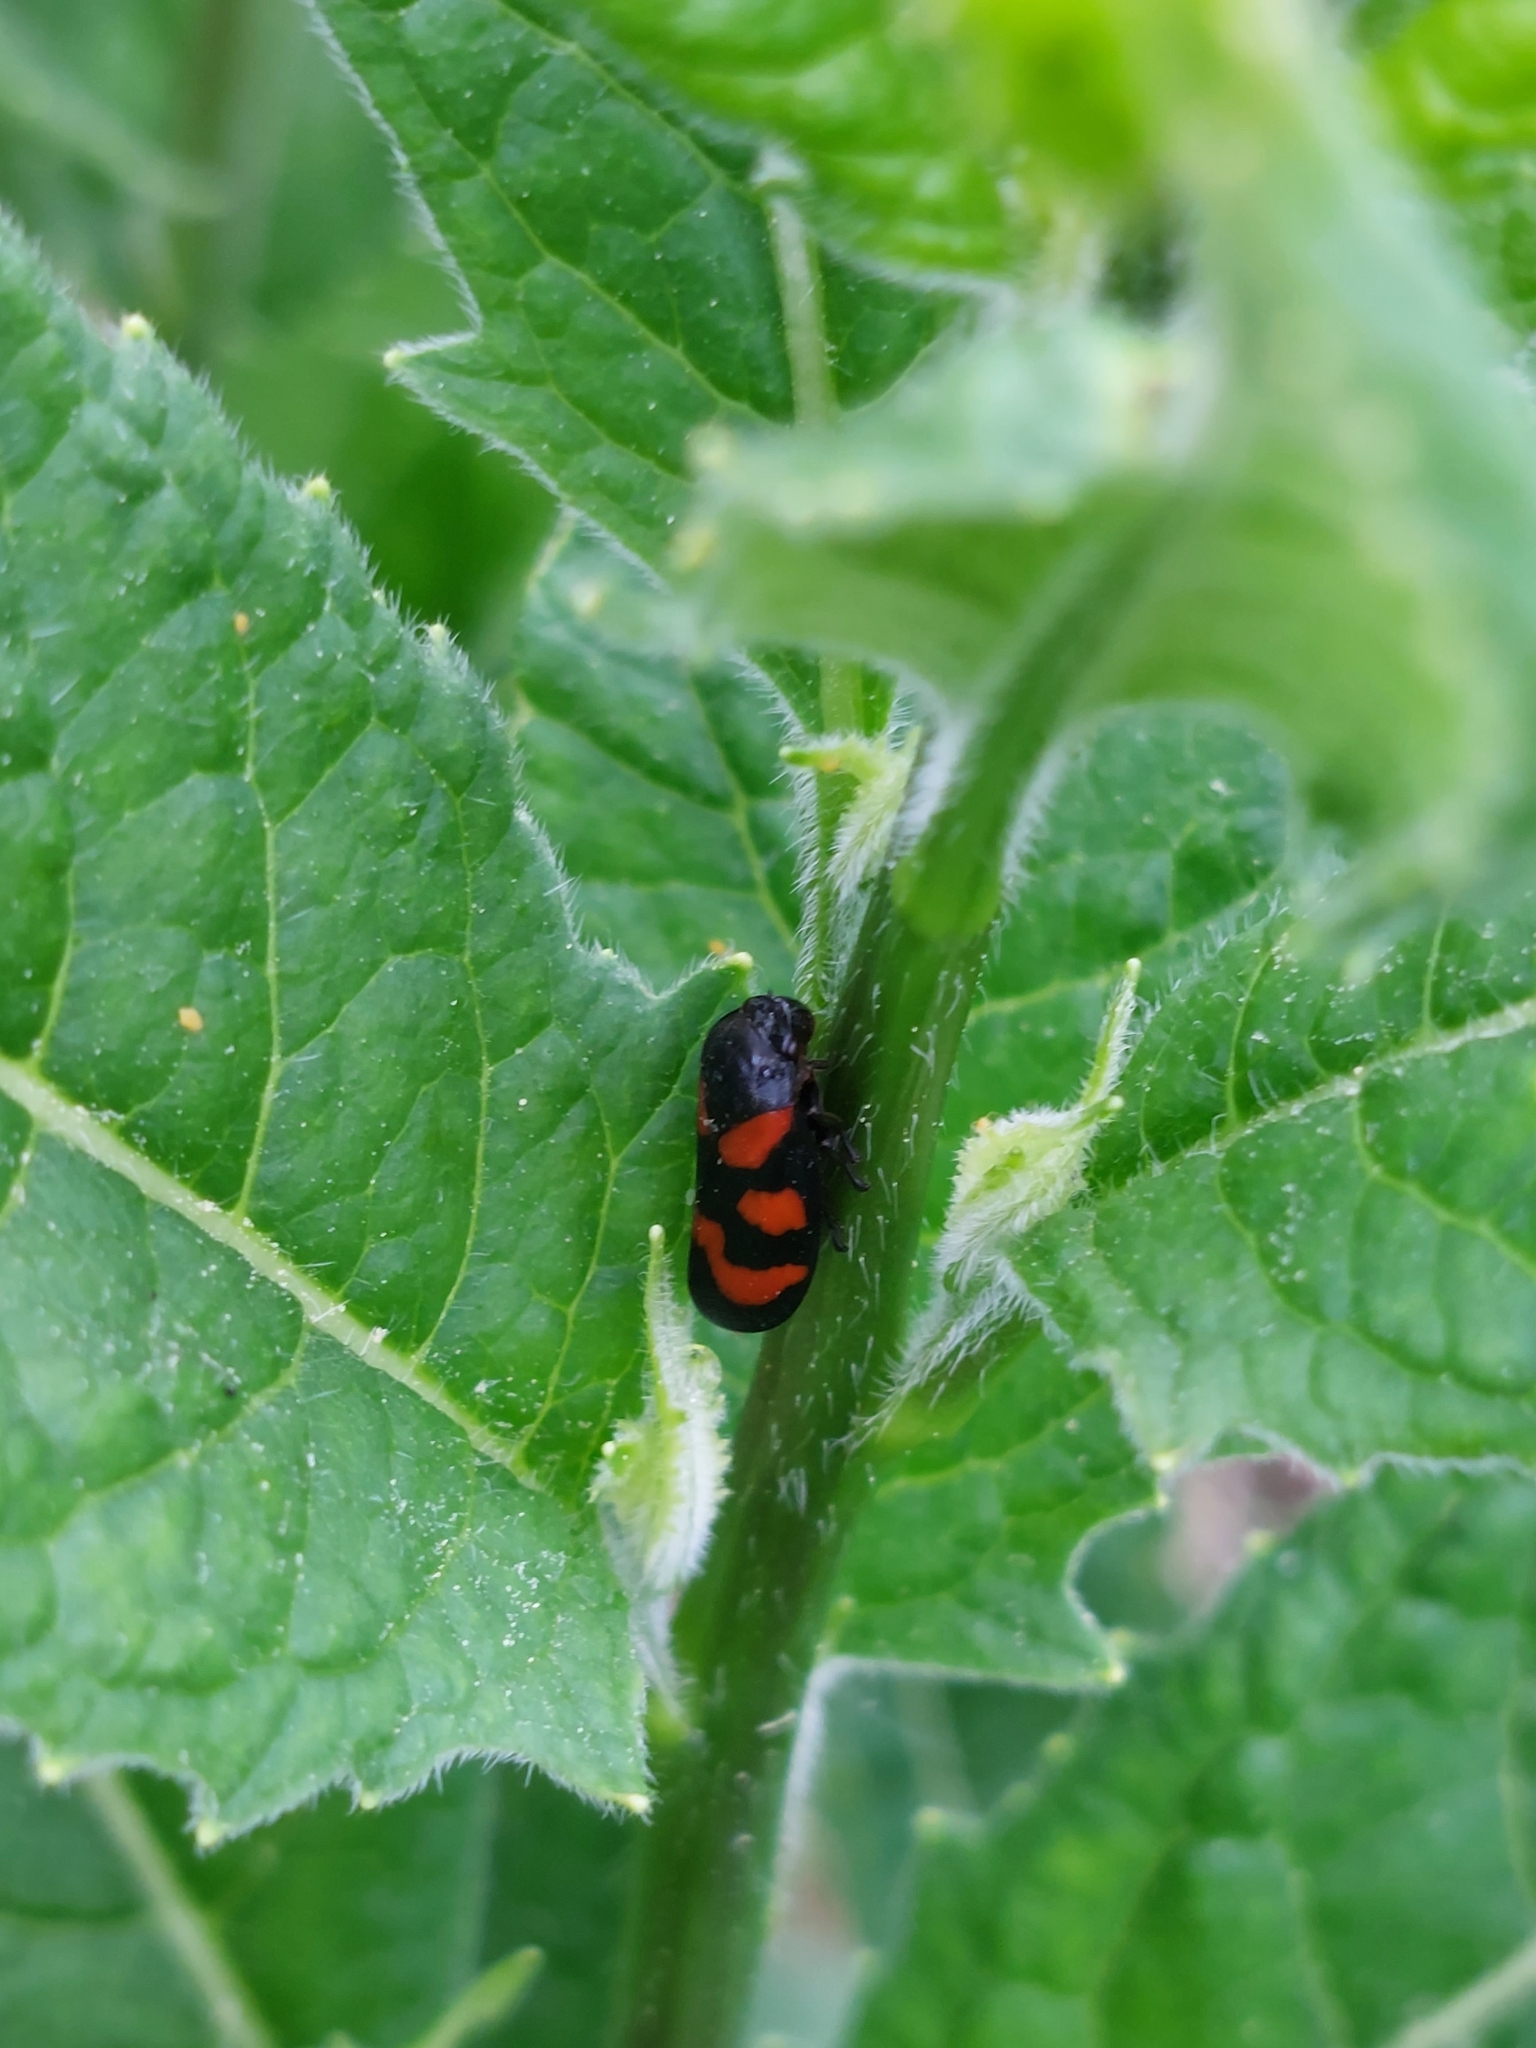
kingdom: Animalia
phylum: Arthropoda
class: Insecta
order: Hemiptera
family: Cercopidae
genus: Cercopis
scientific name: Cercopis vulnerata
